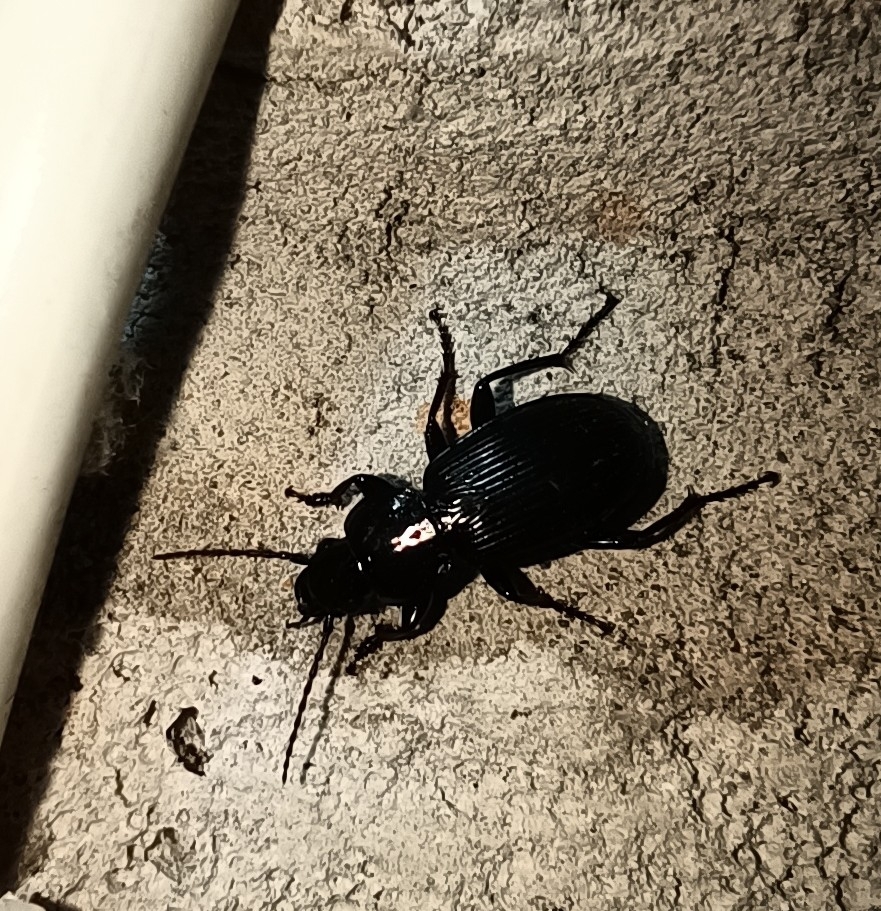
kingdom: Animalia
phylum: Arthropoda
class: Insecta
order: Coleoptera
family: Carabidae
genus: Pterostichus
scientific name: Pterostichus melanarius
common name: European dark harp ground beetle
